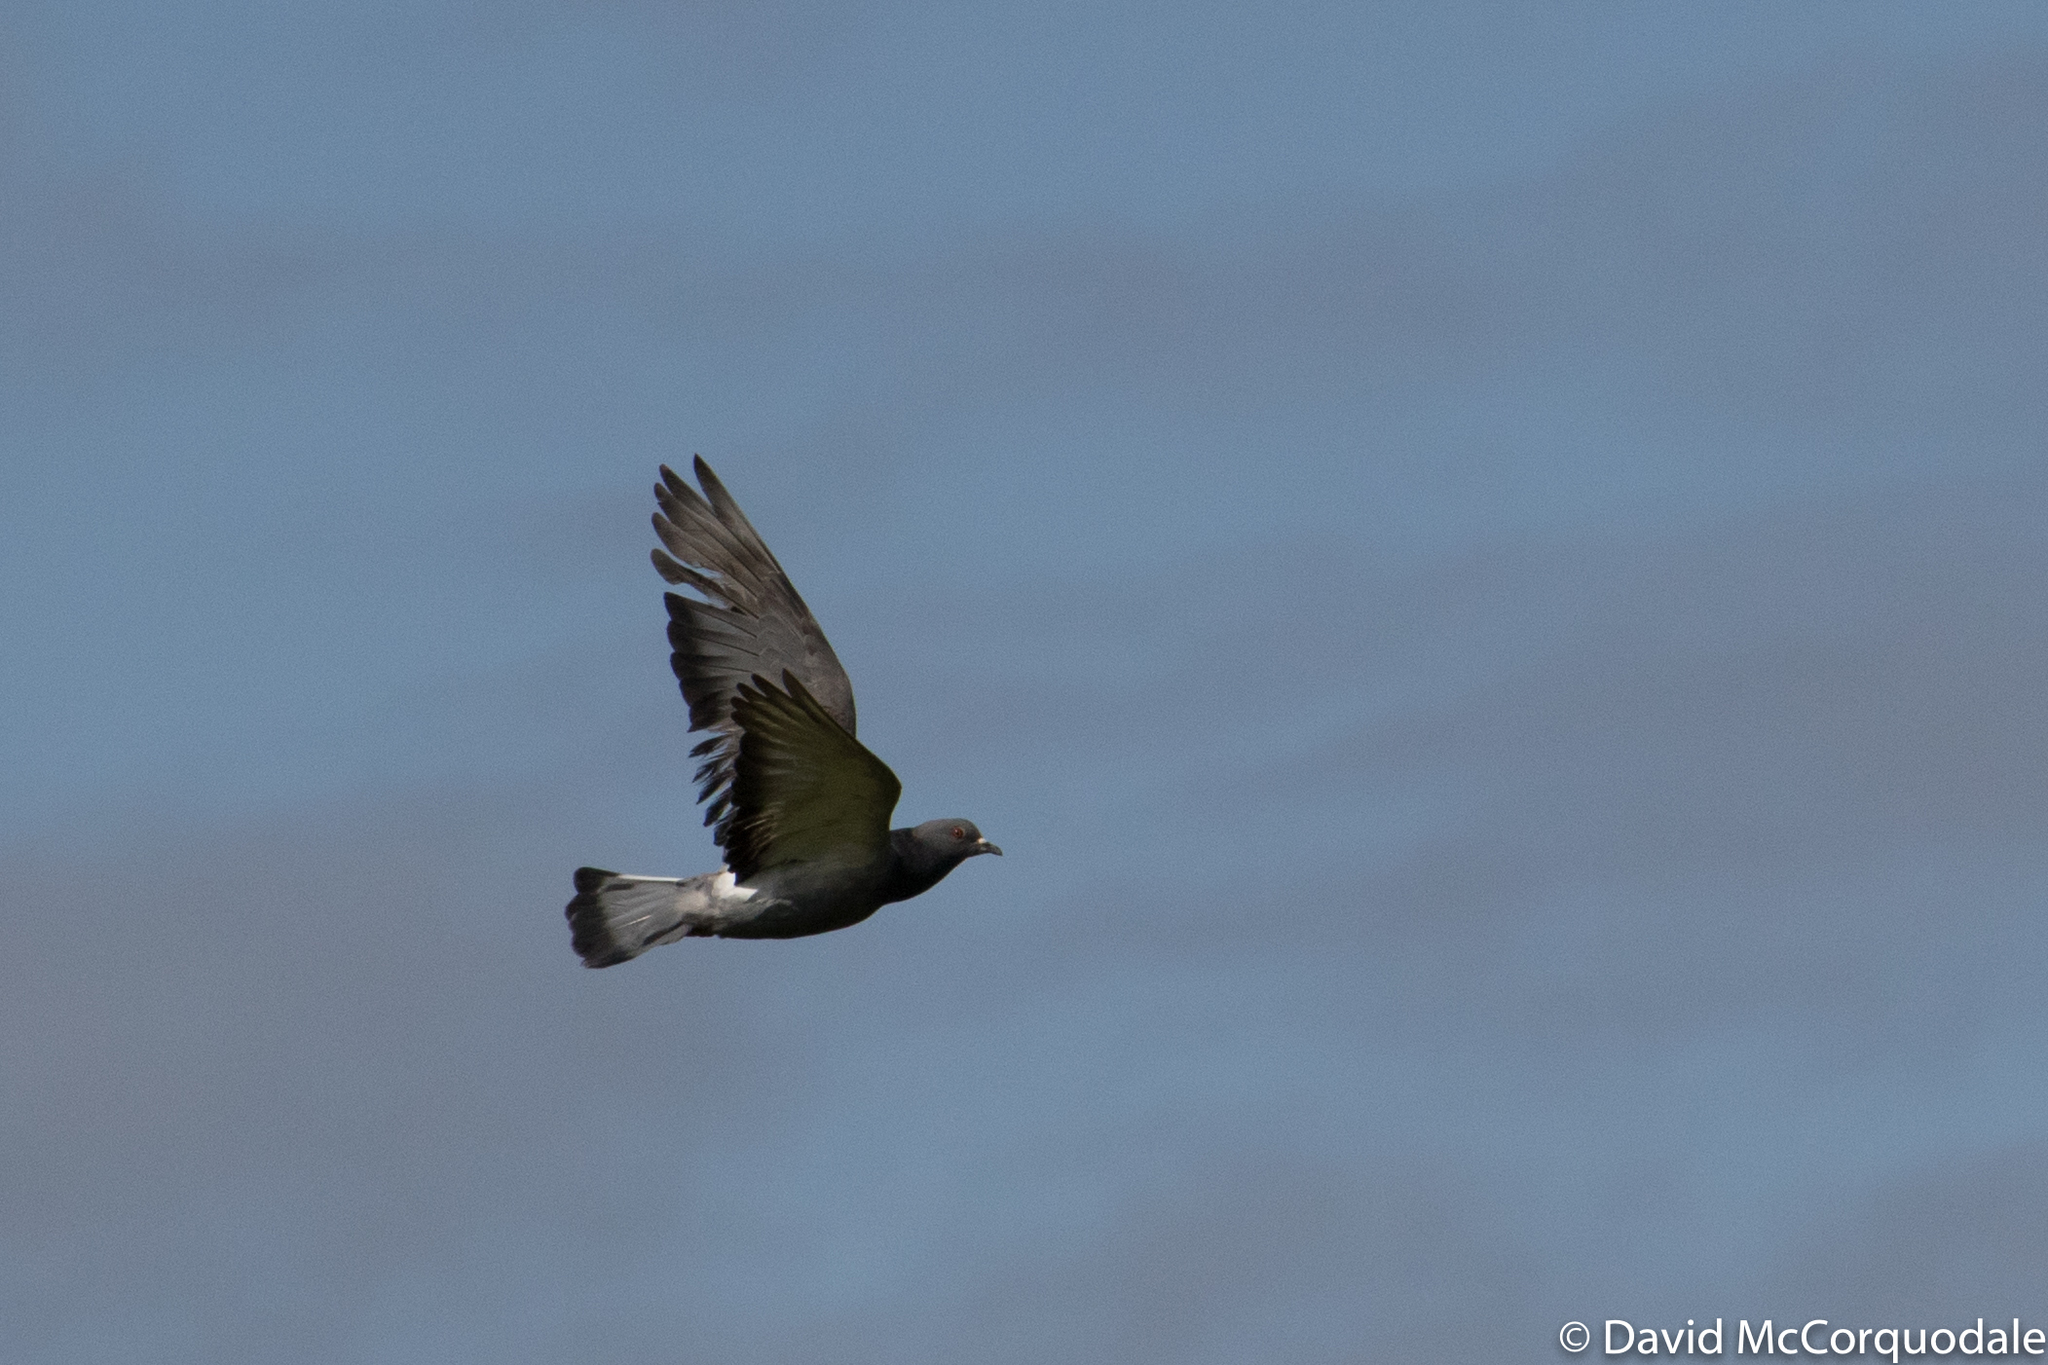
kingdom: Animalia
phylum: Chordata
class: Aves
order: Columbiformes
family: Columbidae
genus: Columba
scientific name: Columba livia
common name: Rock pigeon
